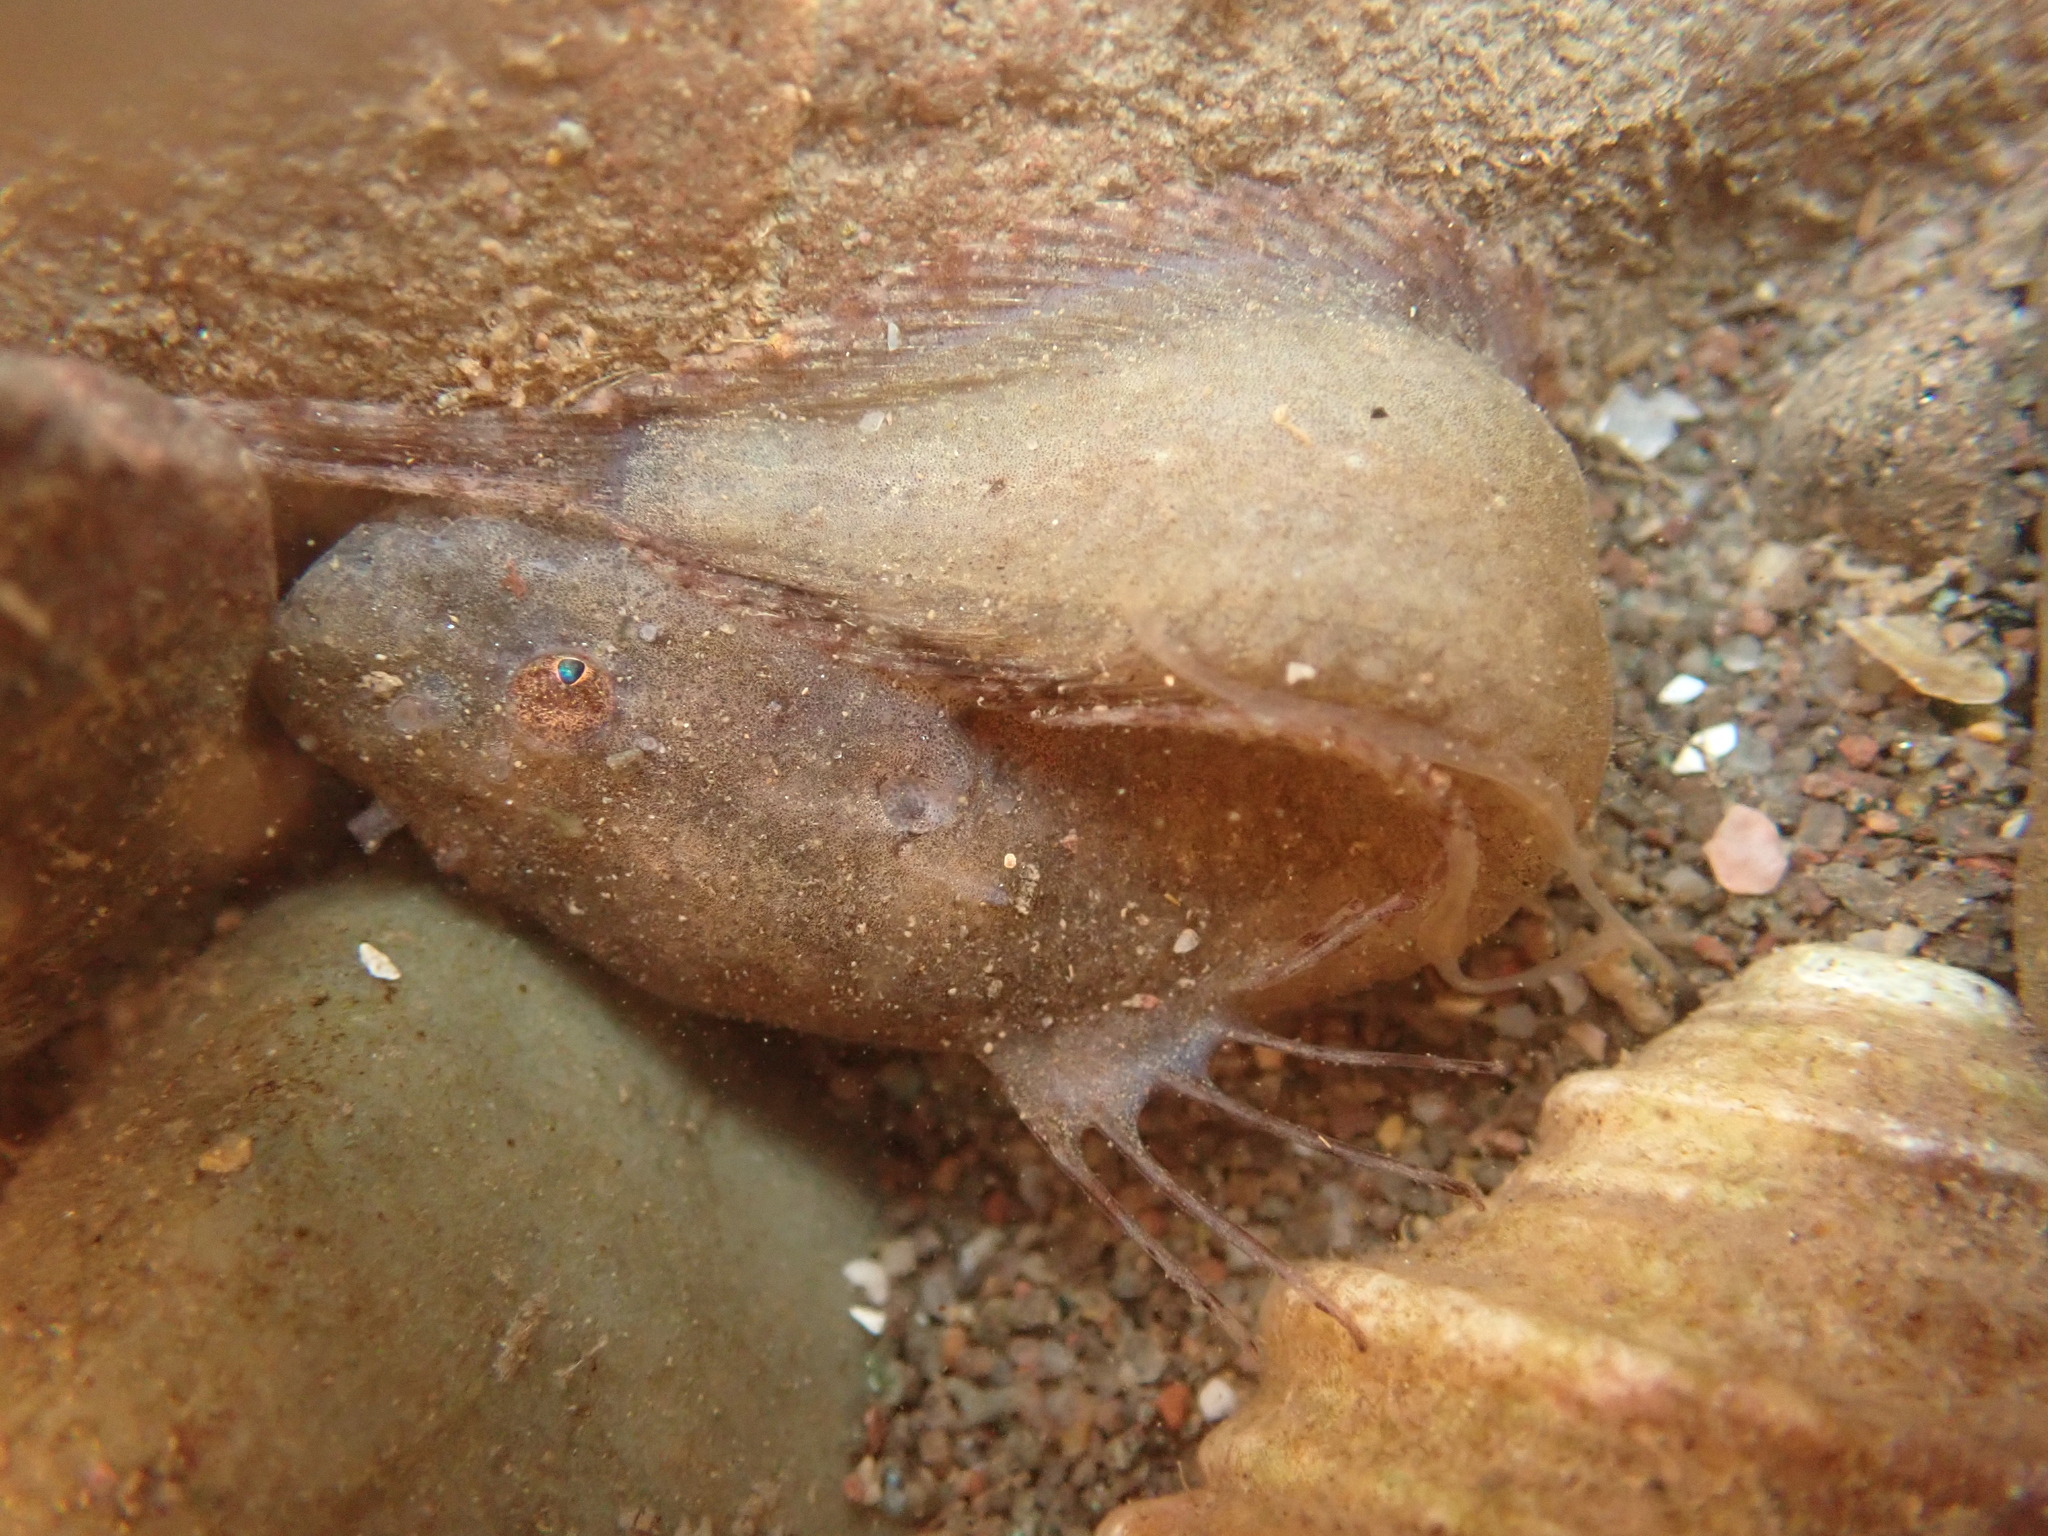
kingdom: Animalia
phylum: Chordata
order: Scorpaeniformes
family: Liparidae
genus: Liparis
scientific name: Liparis atlanticus
